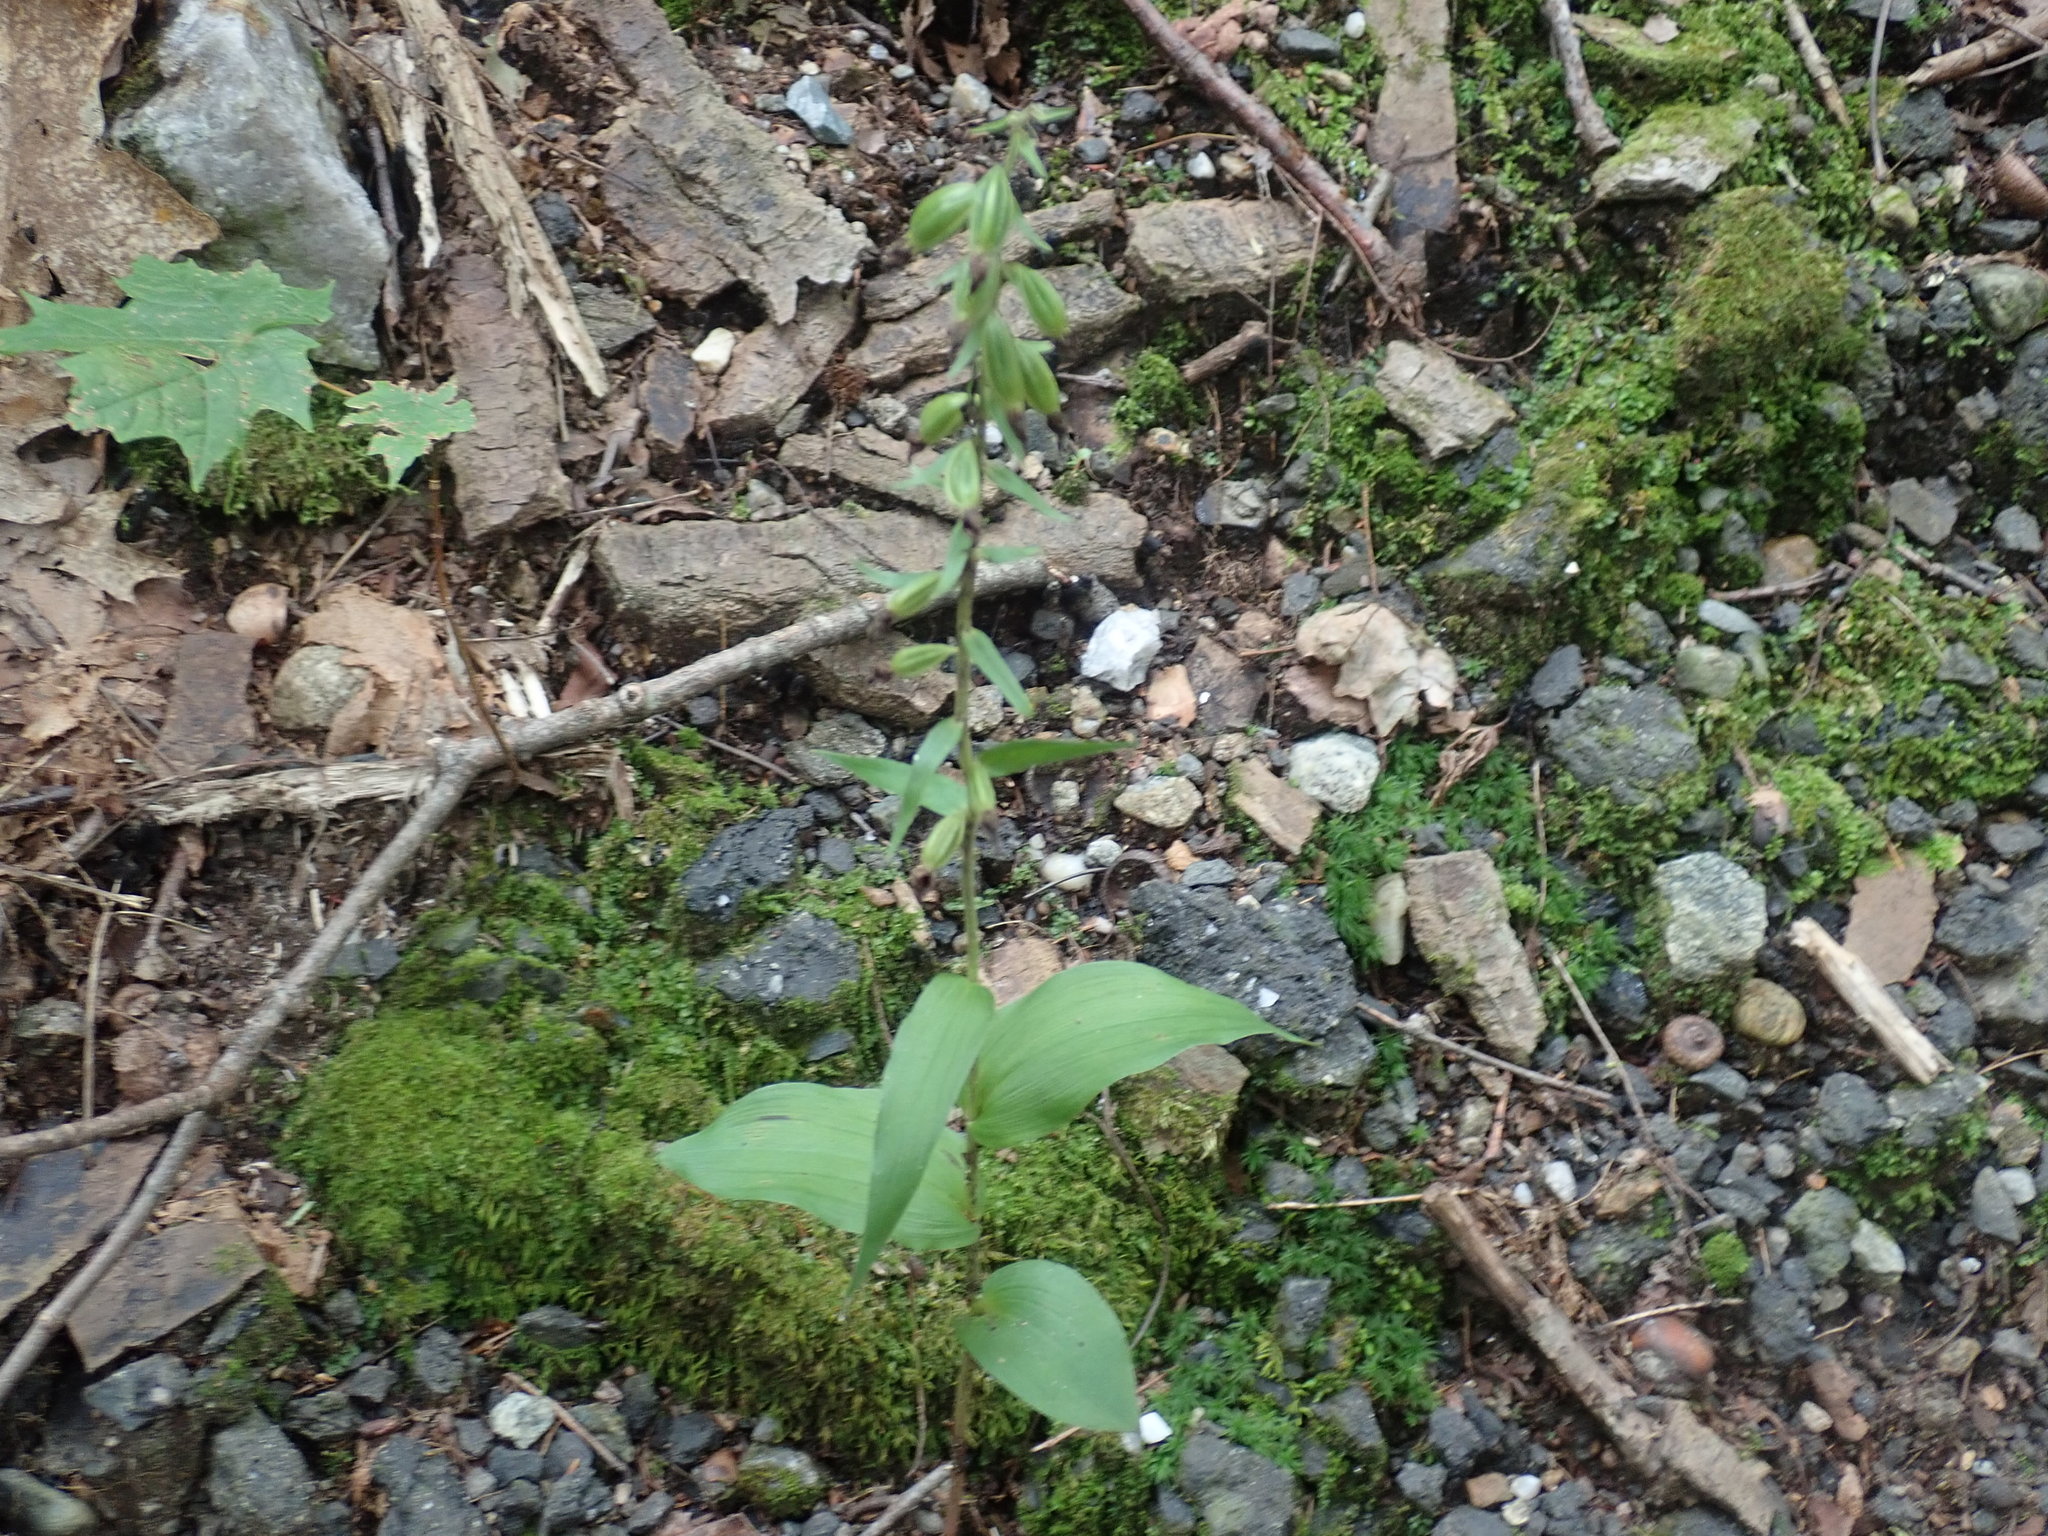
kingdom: Plantae
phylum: Tracheophyta
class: Liliopsida
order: Asparagales
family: Orchidaceae
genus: Epipactis
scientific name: Epipactis helleborine
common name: Broad-leaved helleborine
